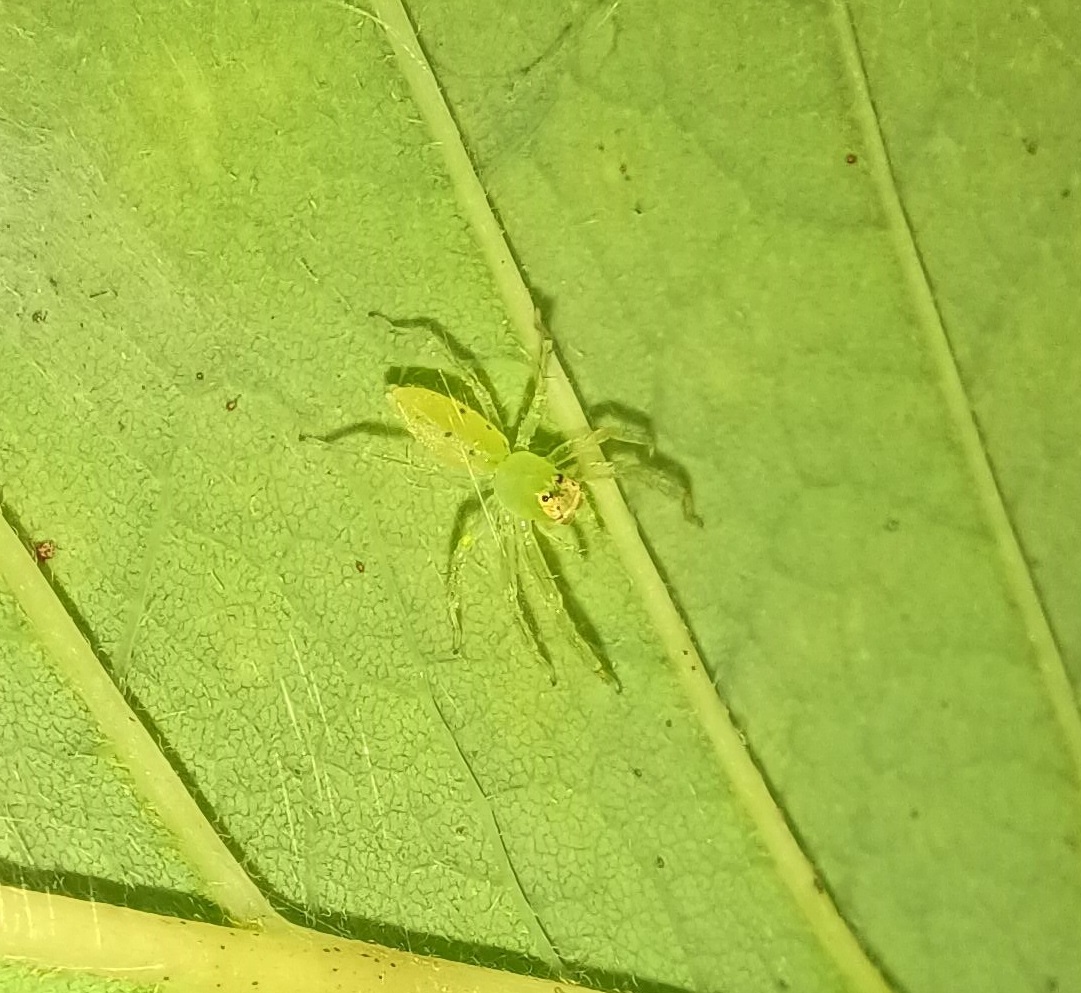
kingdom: Animalia
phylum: Arthropoda
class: Arachnida
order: Araneae
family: Salticidae
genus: Lyssomanes
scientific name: Lyssomanes viridis
